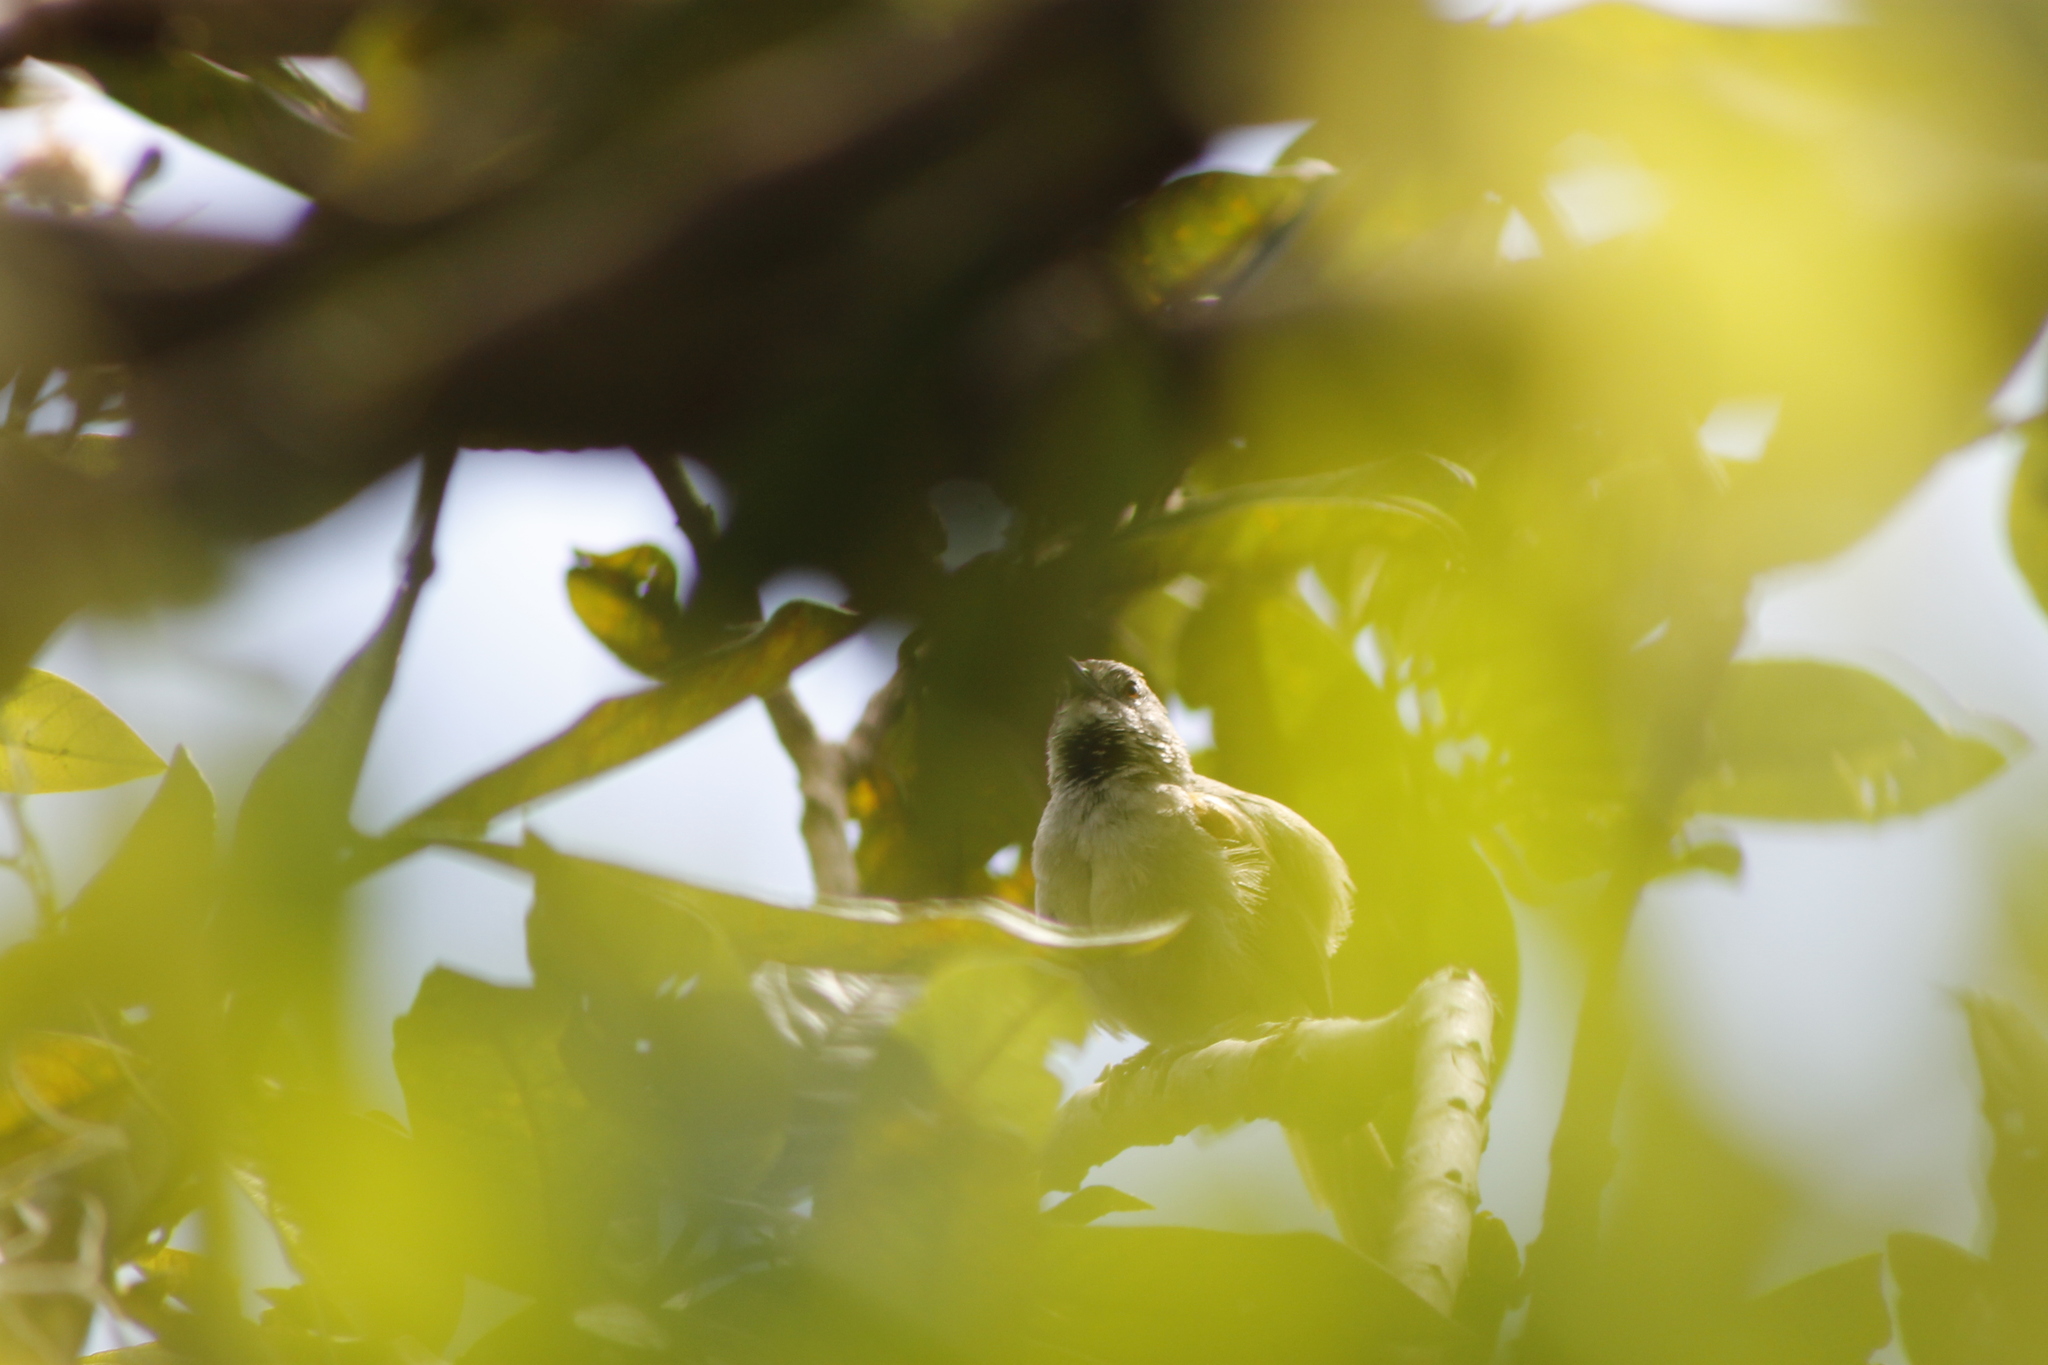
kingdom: Animalia
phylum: Chordata
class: Aves
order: Passeriformes
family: Furnariidae
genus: Synallaxis
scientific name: Synallaxis azarae
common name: Azara's spinetail
